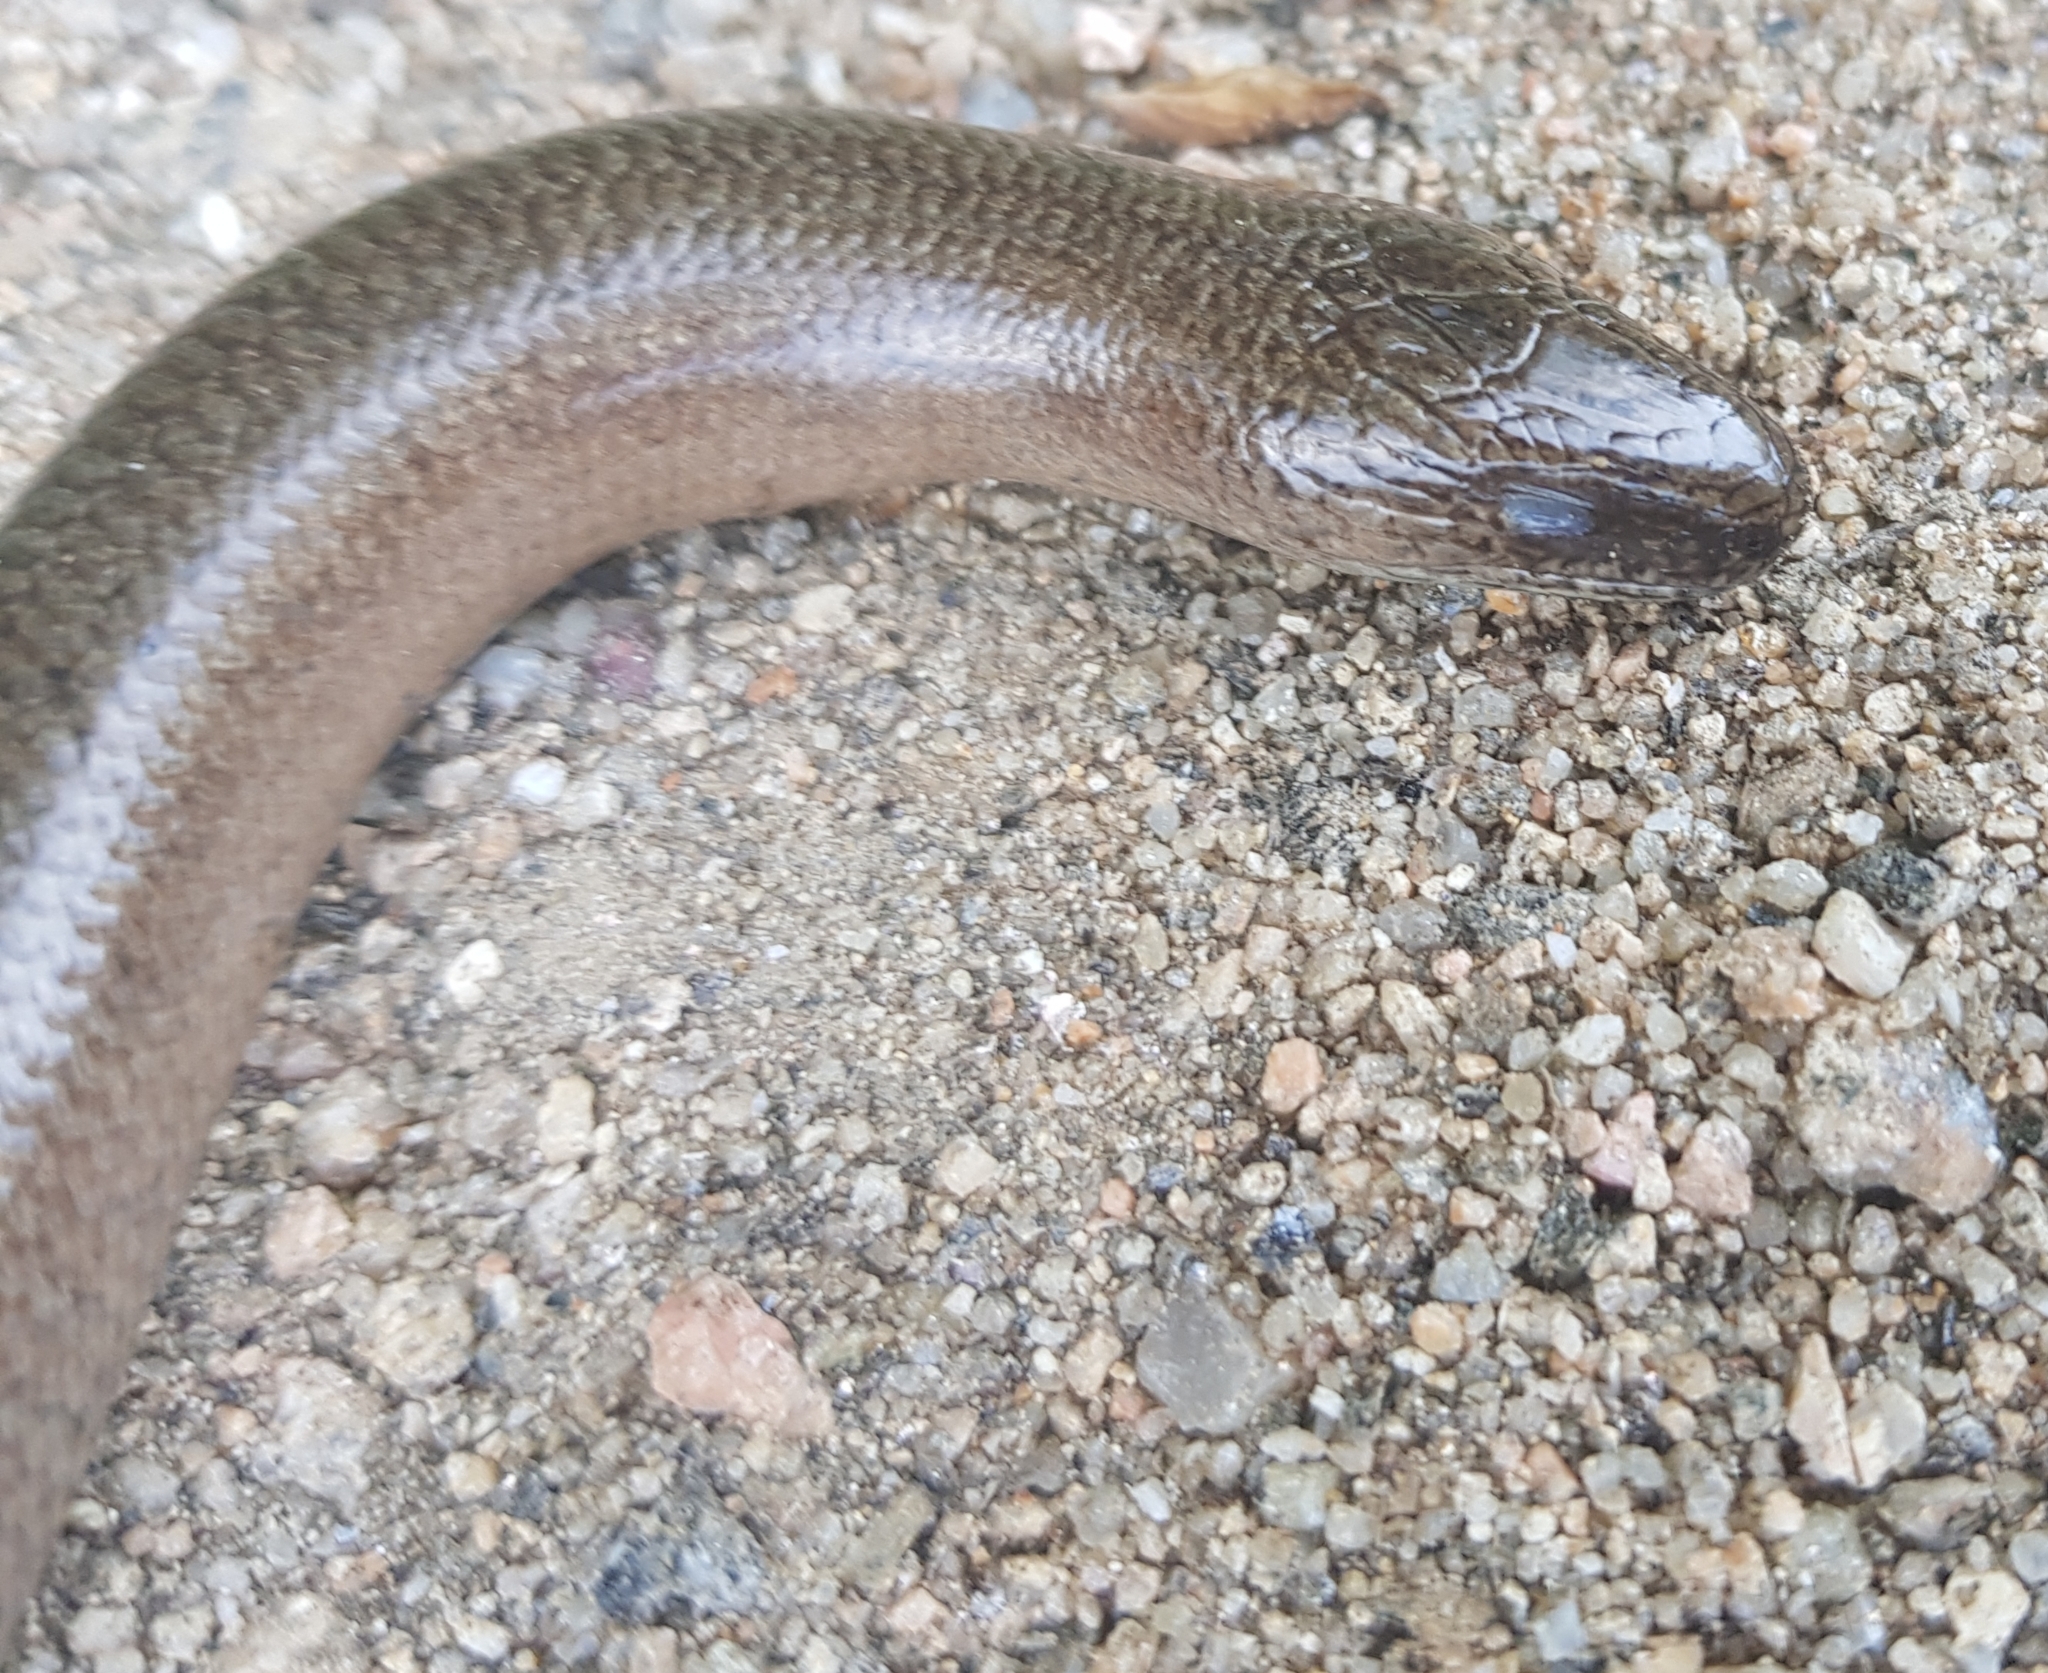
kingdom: Animalia
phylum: Chordata
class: Squamata
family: Anguidae
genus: Anguis
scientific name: Anguis fragilis
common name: Slow worm
